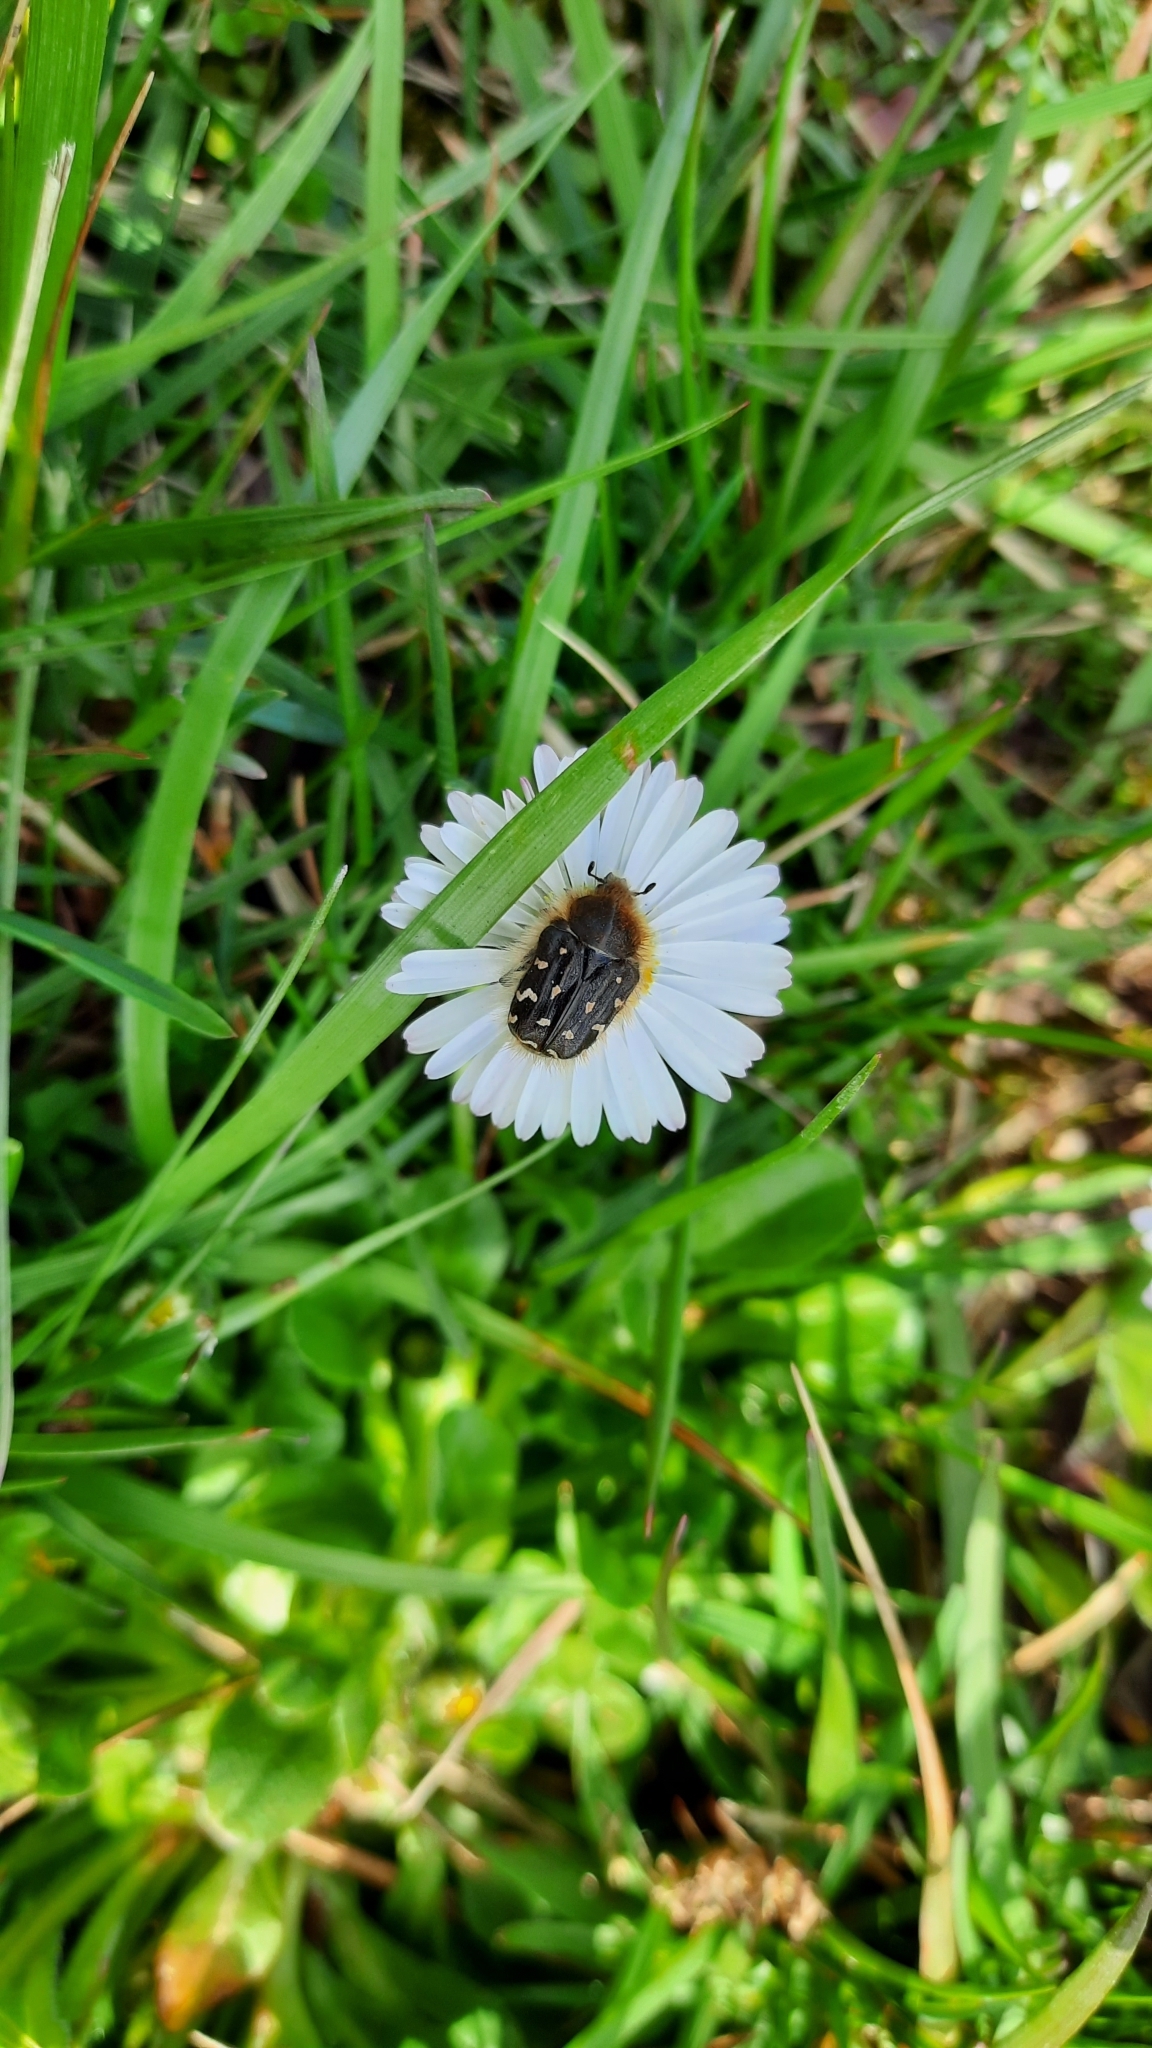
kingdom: Animalia
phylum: Arthropoda
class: Insecta
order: Coleoptera
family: Scarabaeidae
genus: Tropinota
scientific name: Tropinota hirta
